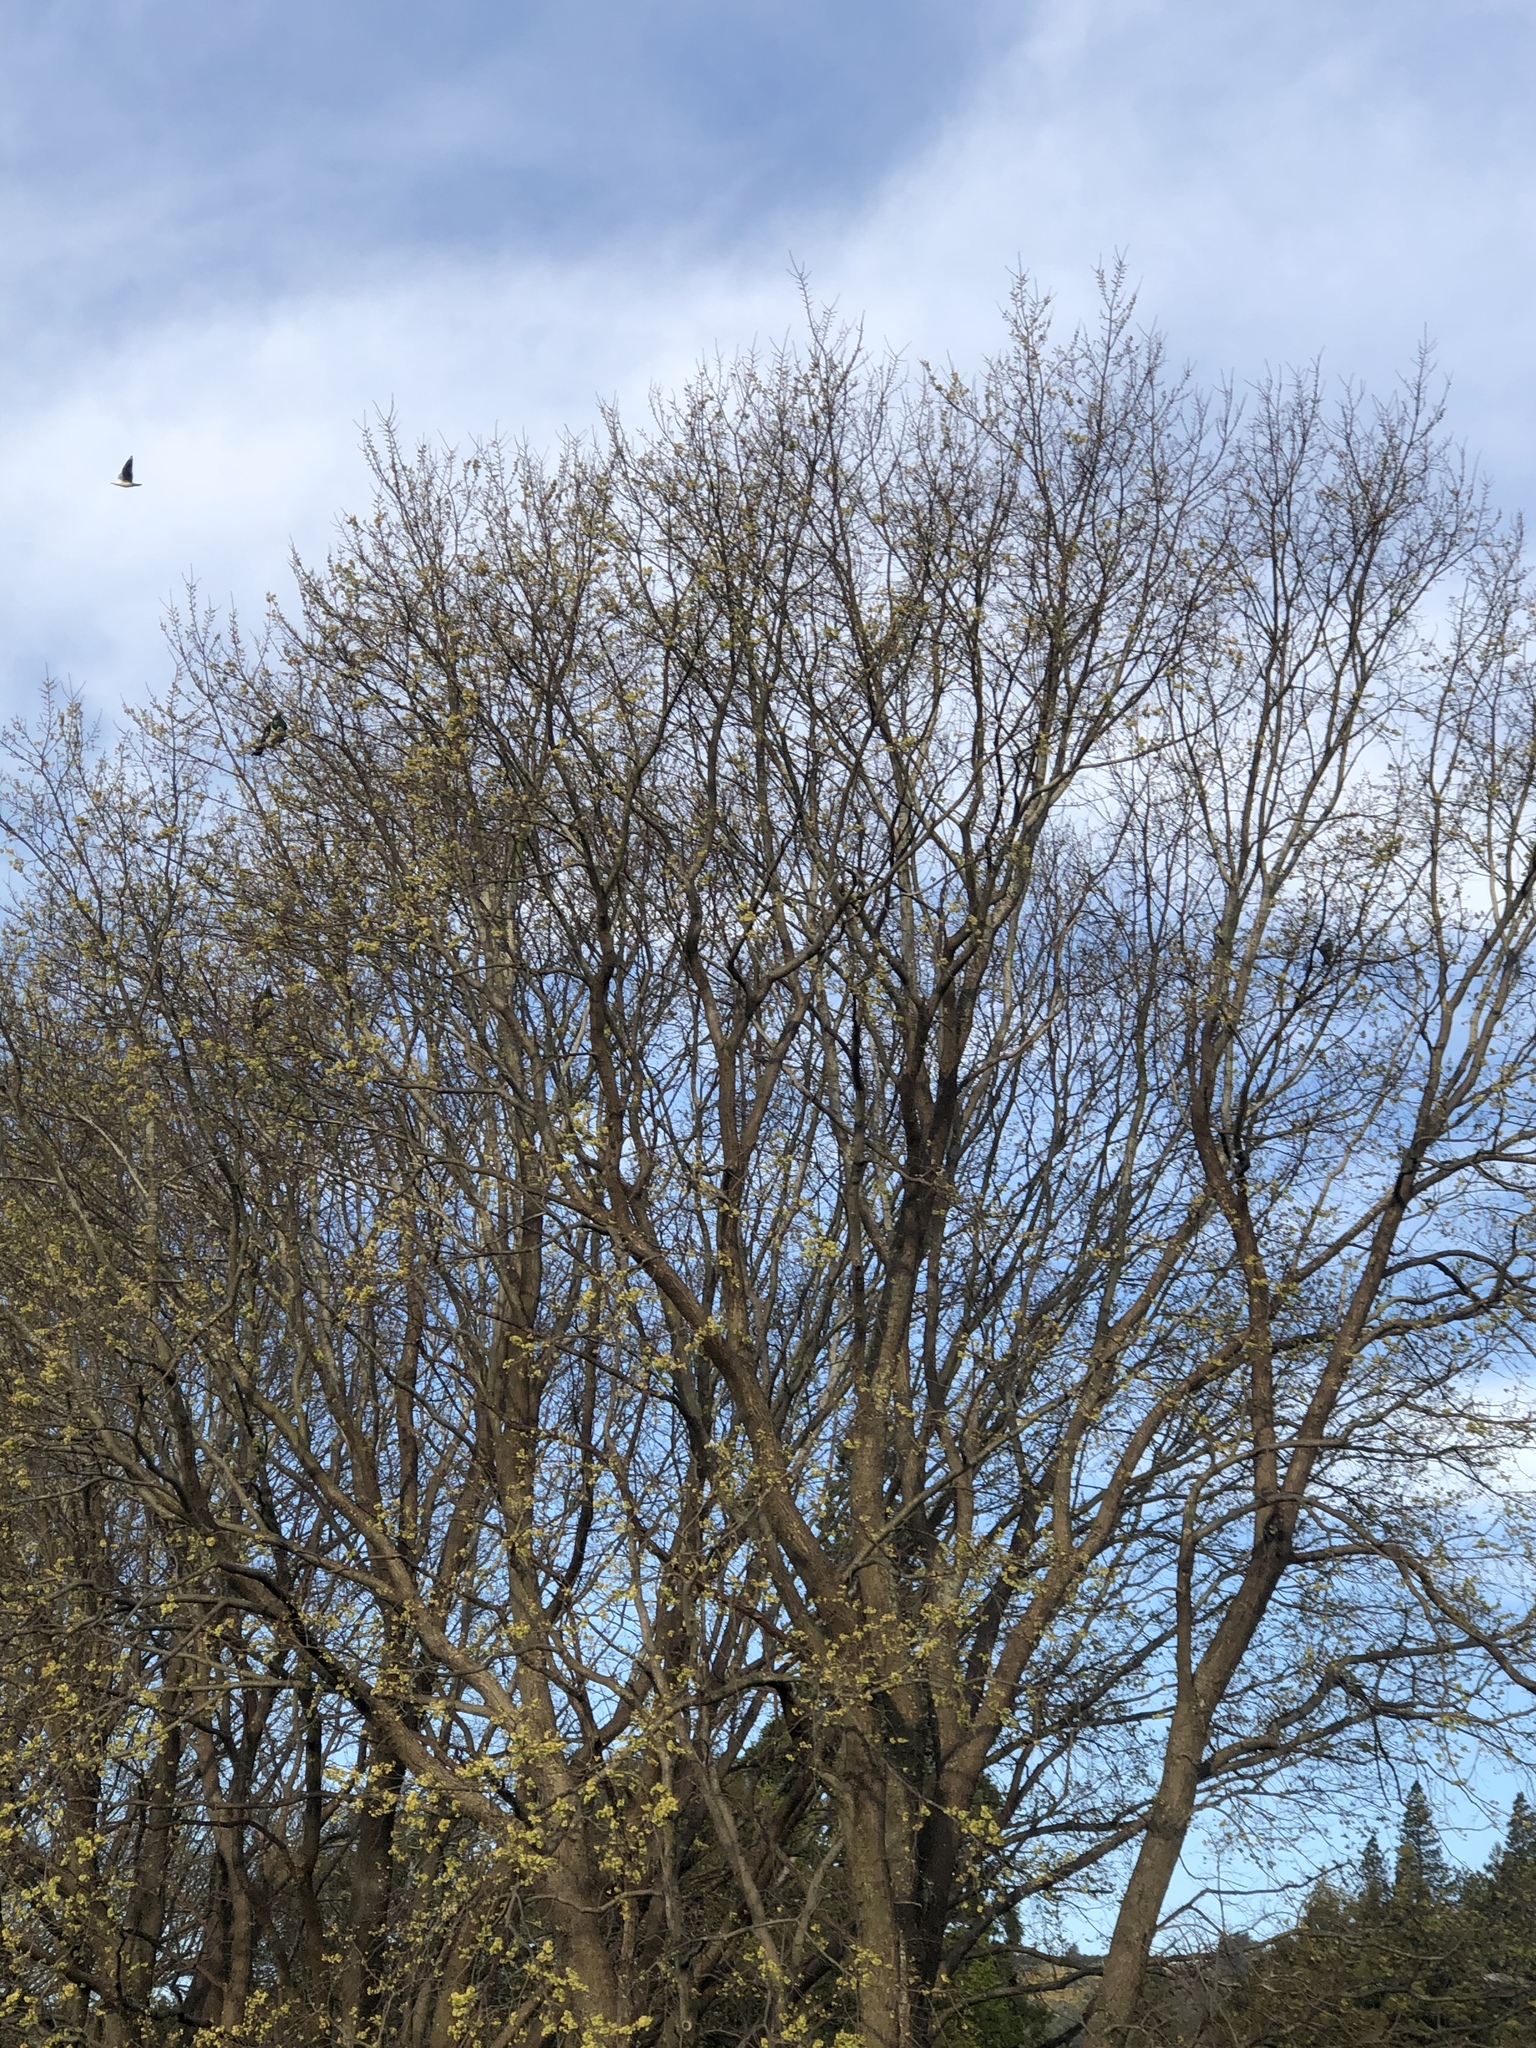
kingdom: Animalia
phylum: Chordata
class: Aves
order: Columbiformes
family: Columbidae
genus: Hemiphaga
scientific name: Hemiphaga novaeseelandiae
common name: New zealand pigeon
